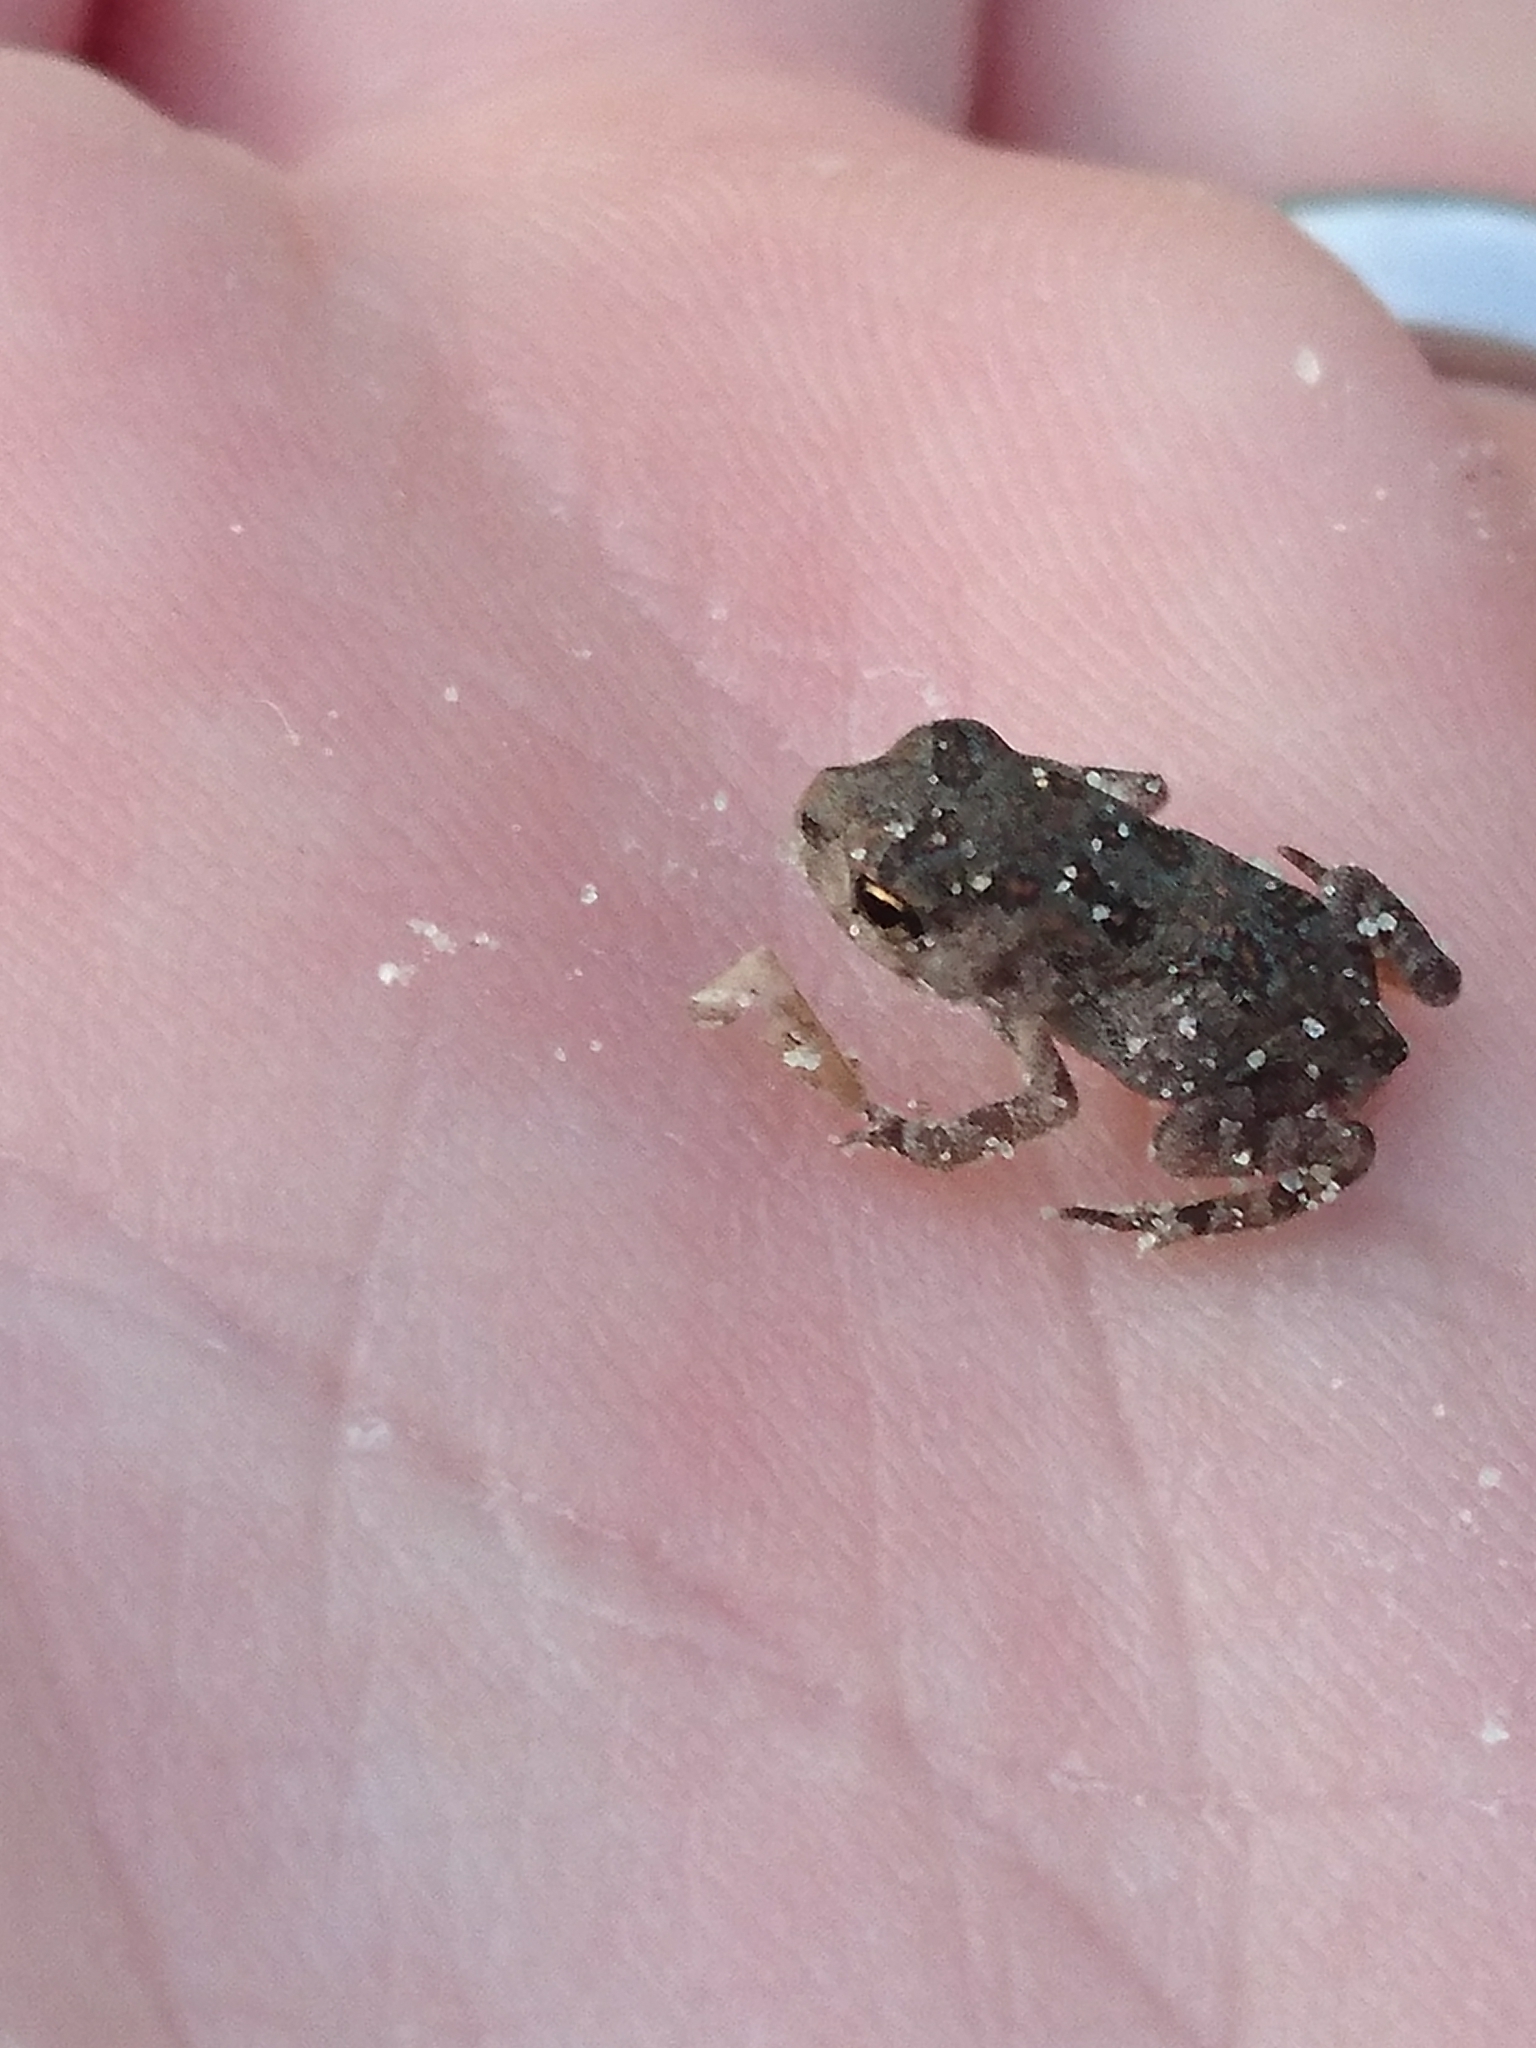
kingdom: Animalia
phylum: Chordata
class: Amphibia
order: Anura
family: Bufonidae
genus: Incilius
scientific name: Incilius nebulifer
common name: Gulf coast toad
